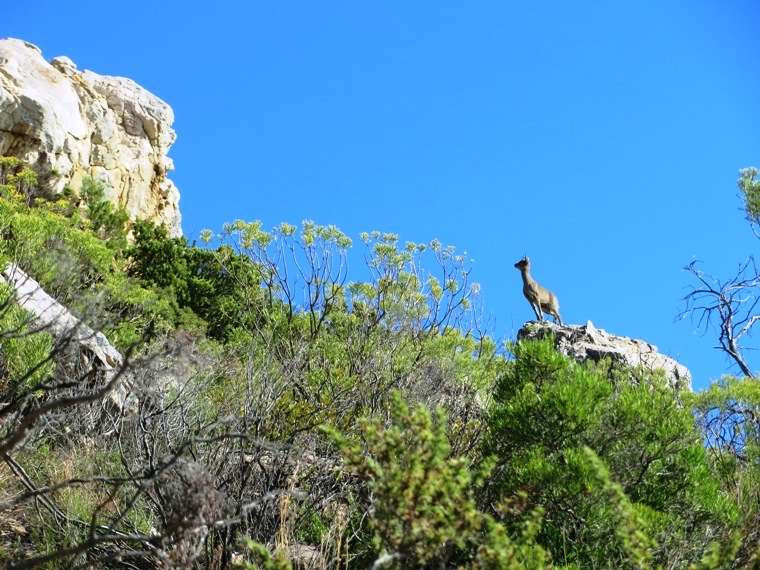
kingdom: Animalia
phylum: Chordata
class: Mammalia
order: Artiodactyla
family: Bovidae
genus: Oreotragus
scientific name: Oreotragus oreotragus
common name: Klipspringer
